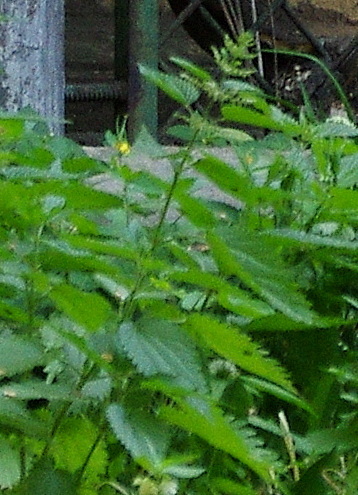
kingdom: Plantae
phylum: Tracheophyta
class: Magnoliopsida
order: Rosales
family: Urticaceae
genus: Urtica
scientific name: Urtica dioica
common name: Common nettle
